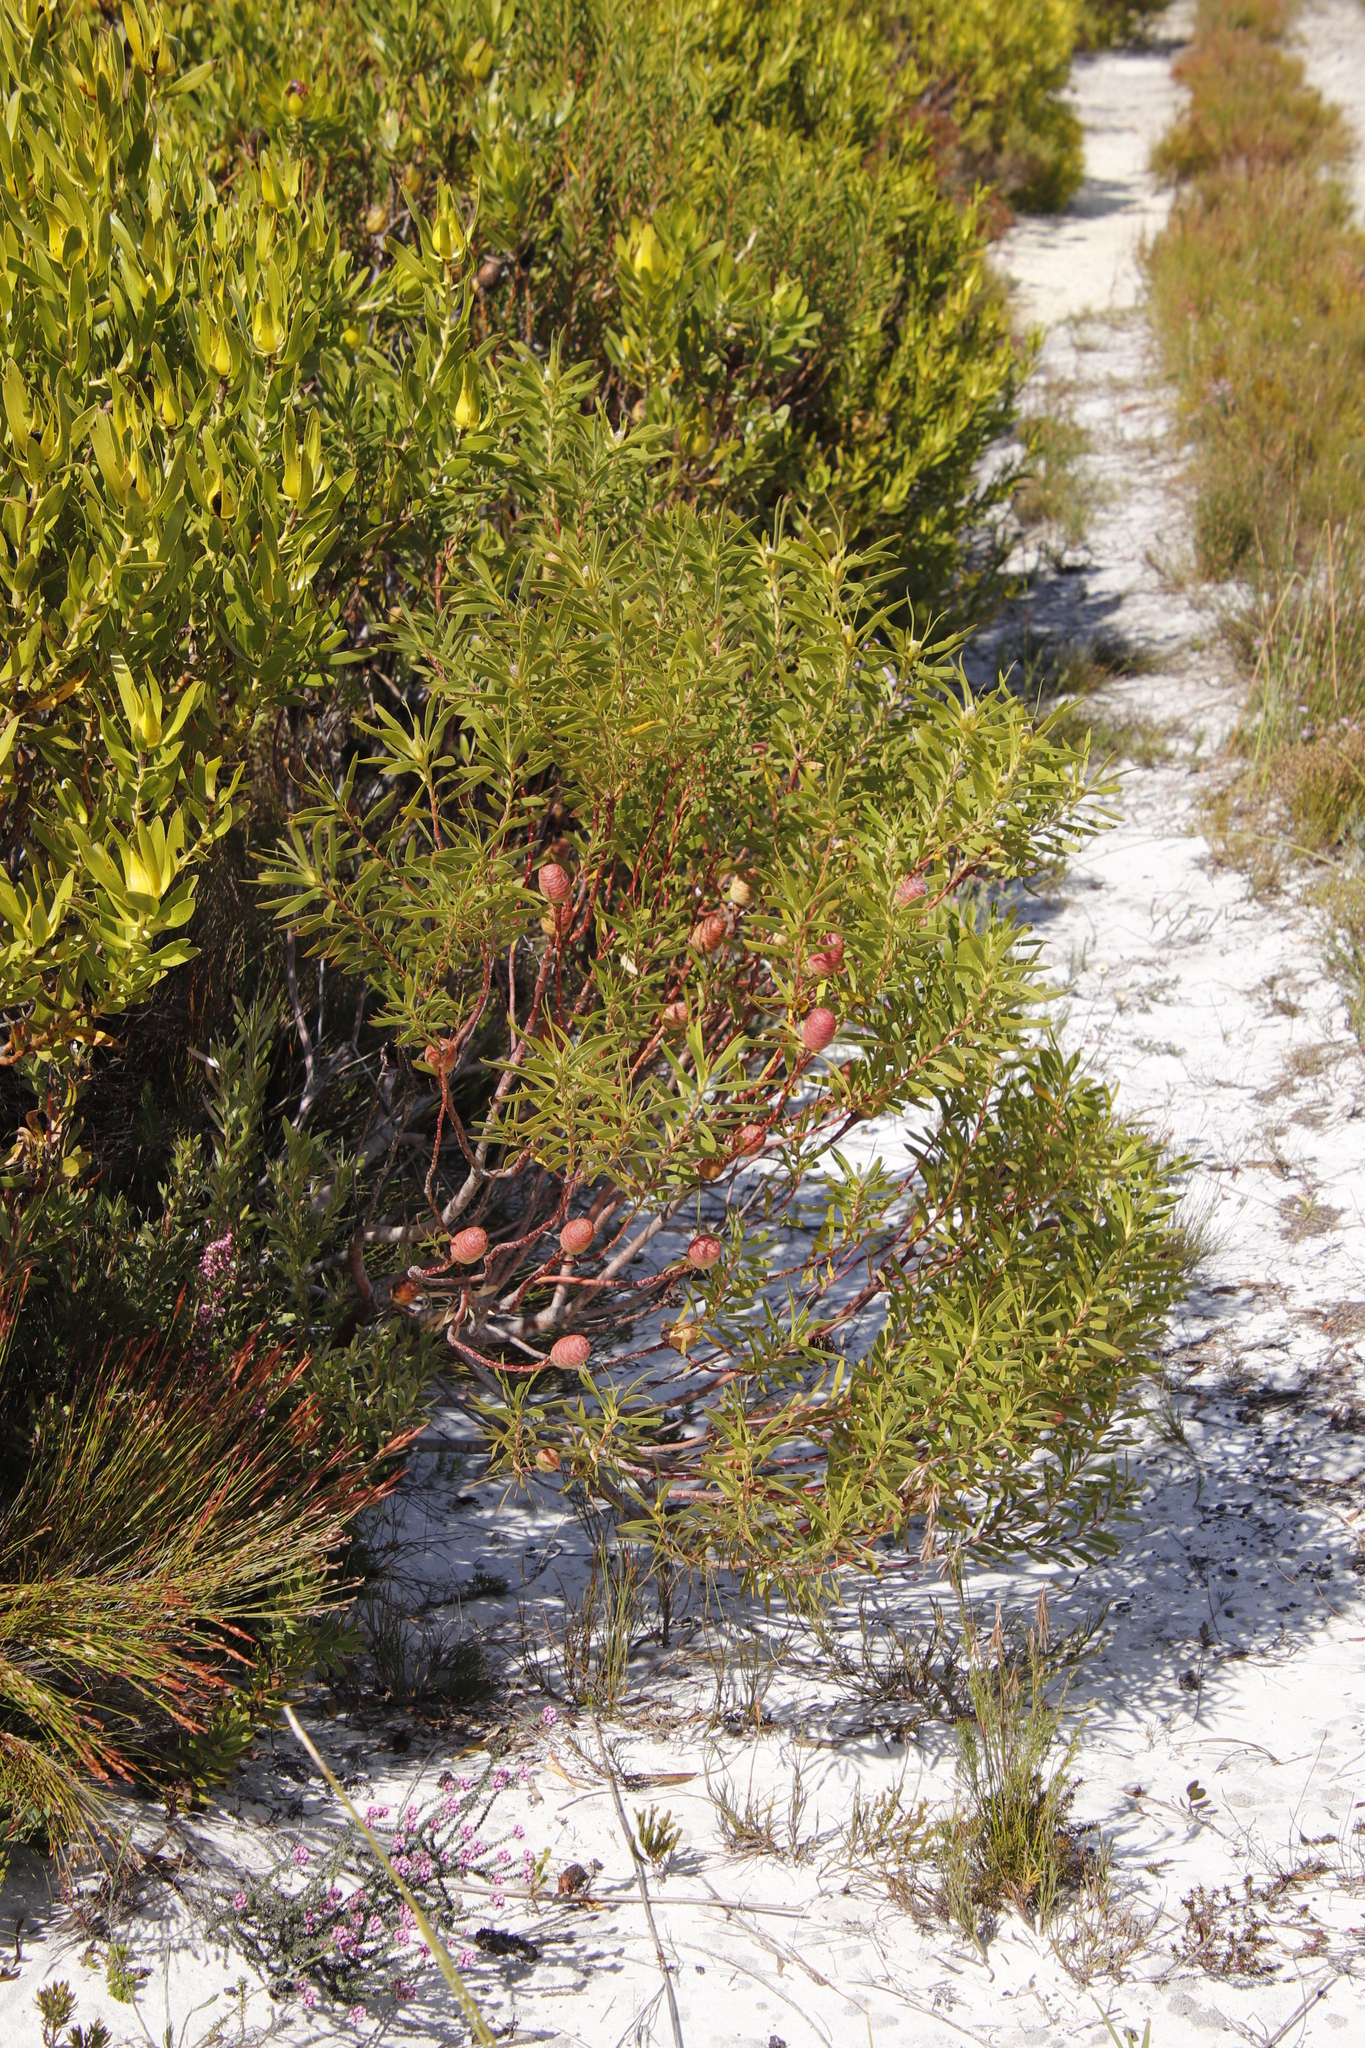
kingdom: Plantae
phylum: Tracheophyta
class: Magnoliopsida
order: Proteales
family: Proteaceae
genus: Leucadendron
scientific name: Leucadendron coniferum
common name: Dune conebush
